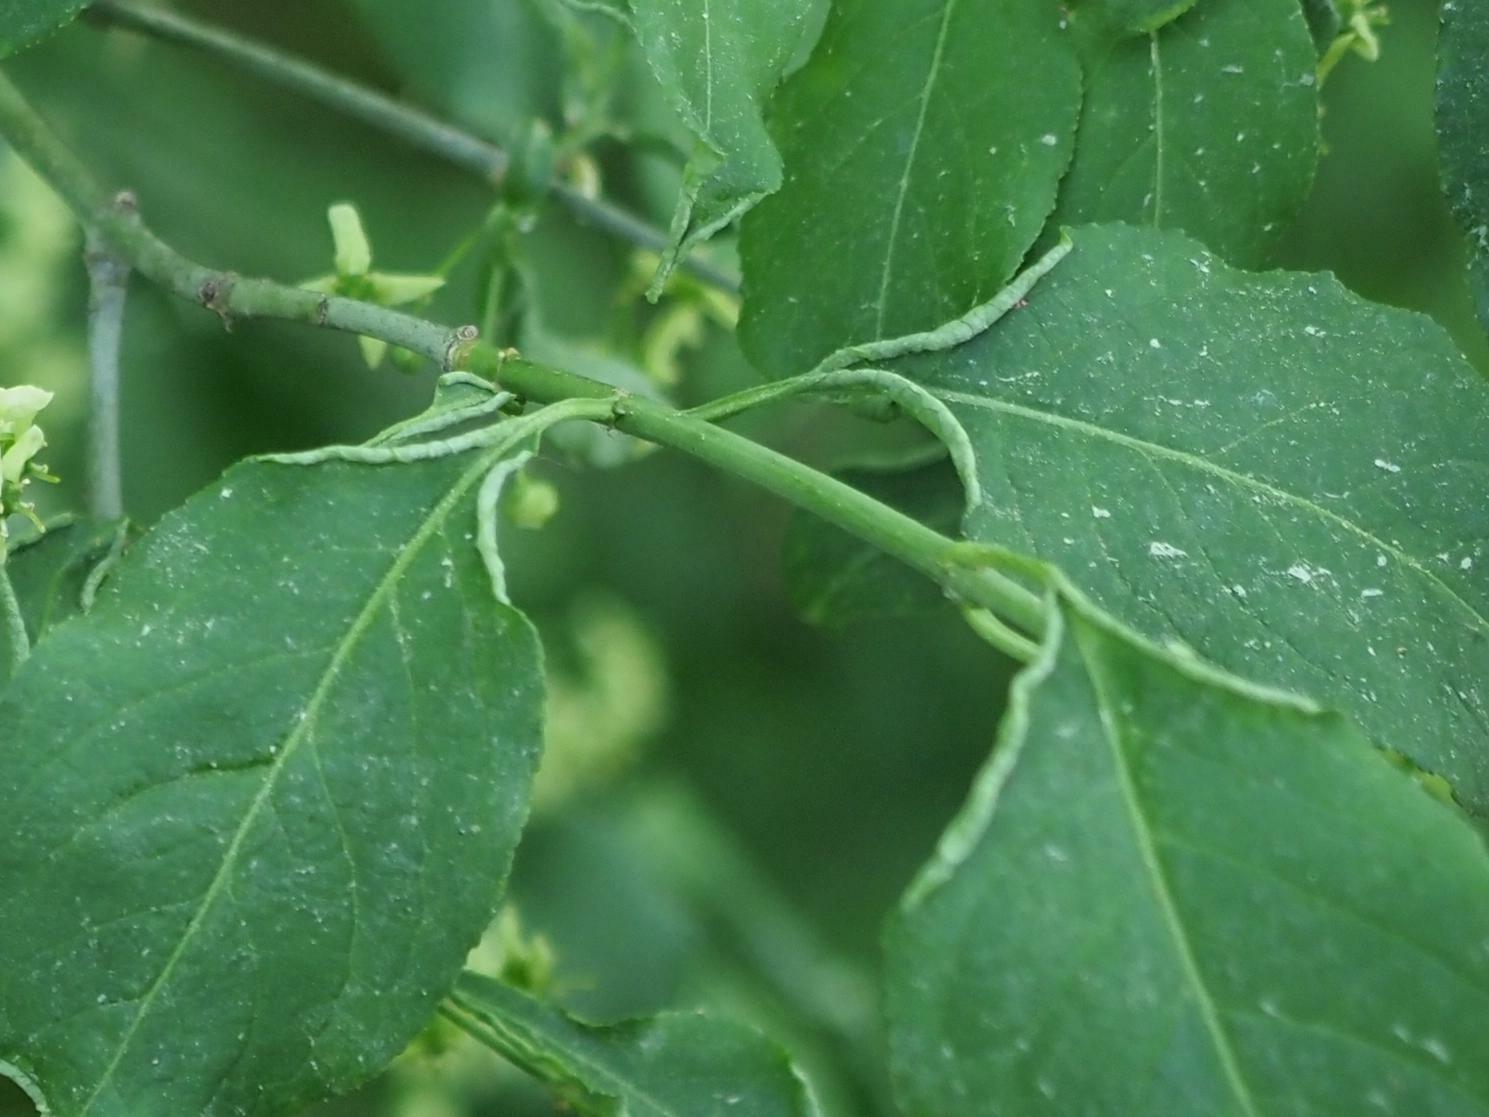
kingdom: Animalia
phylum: Arthropoda
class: Arachnida
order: Trombidiformes
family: Eriophyidae
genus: Stenacis
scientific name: Stenacis evonymi
